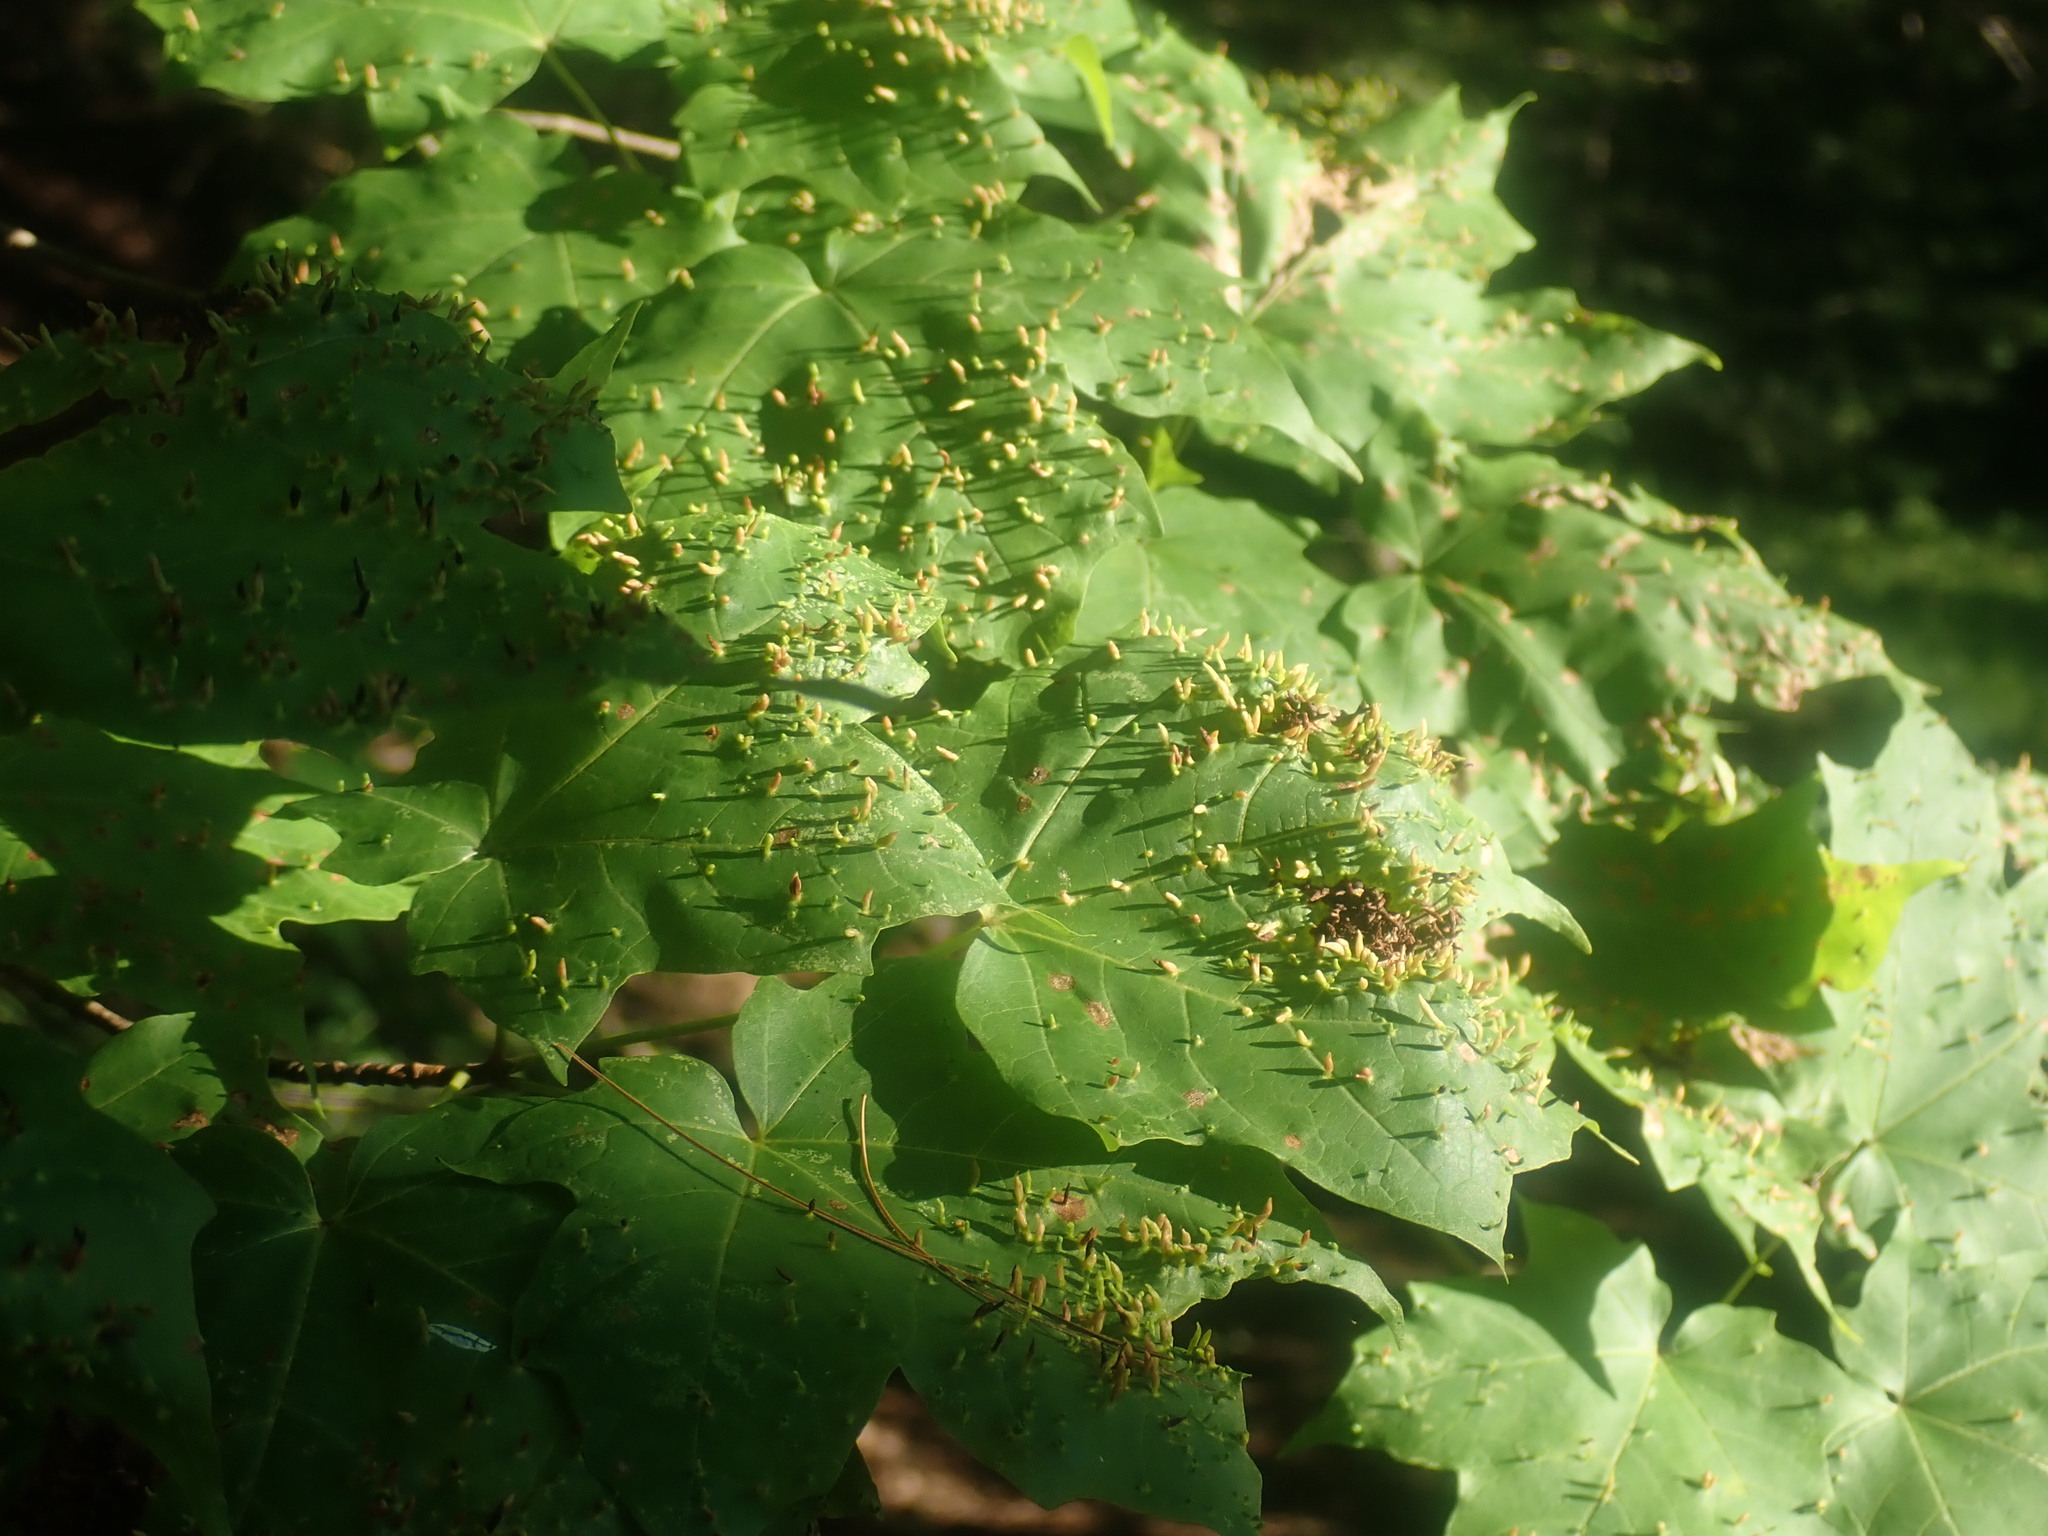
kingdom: Animalia
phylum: Arthropoda
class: Arachnida
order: Trombidiformes
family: Eriophyidae
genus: Vasates
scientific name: Vasates aceriscrumena
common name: Maple spindle gall mite
